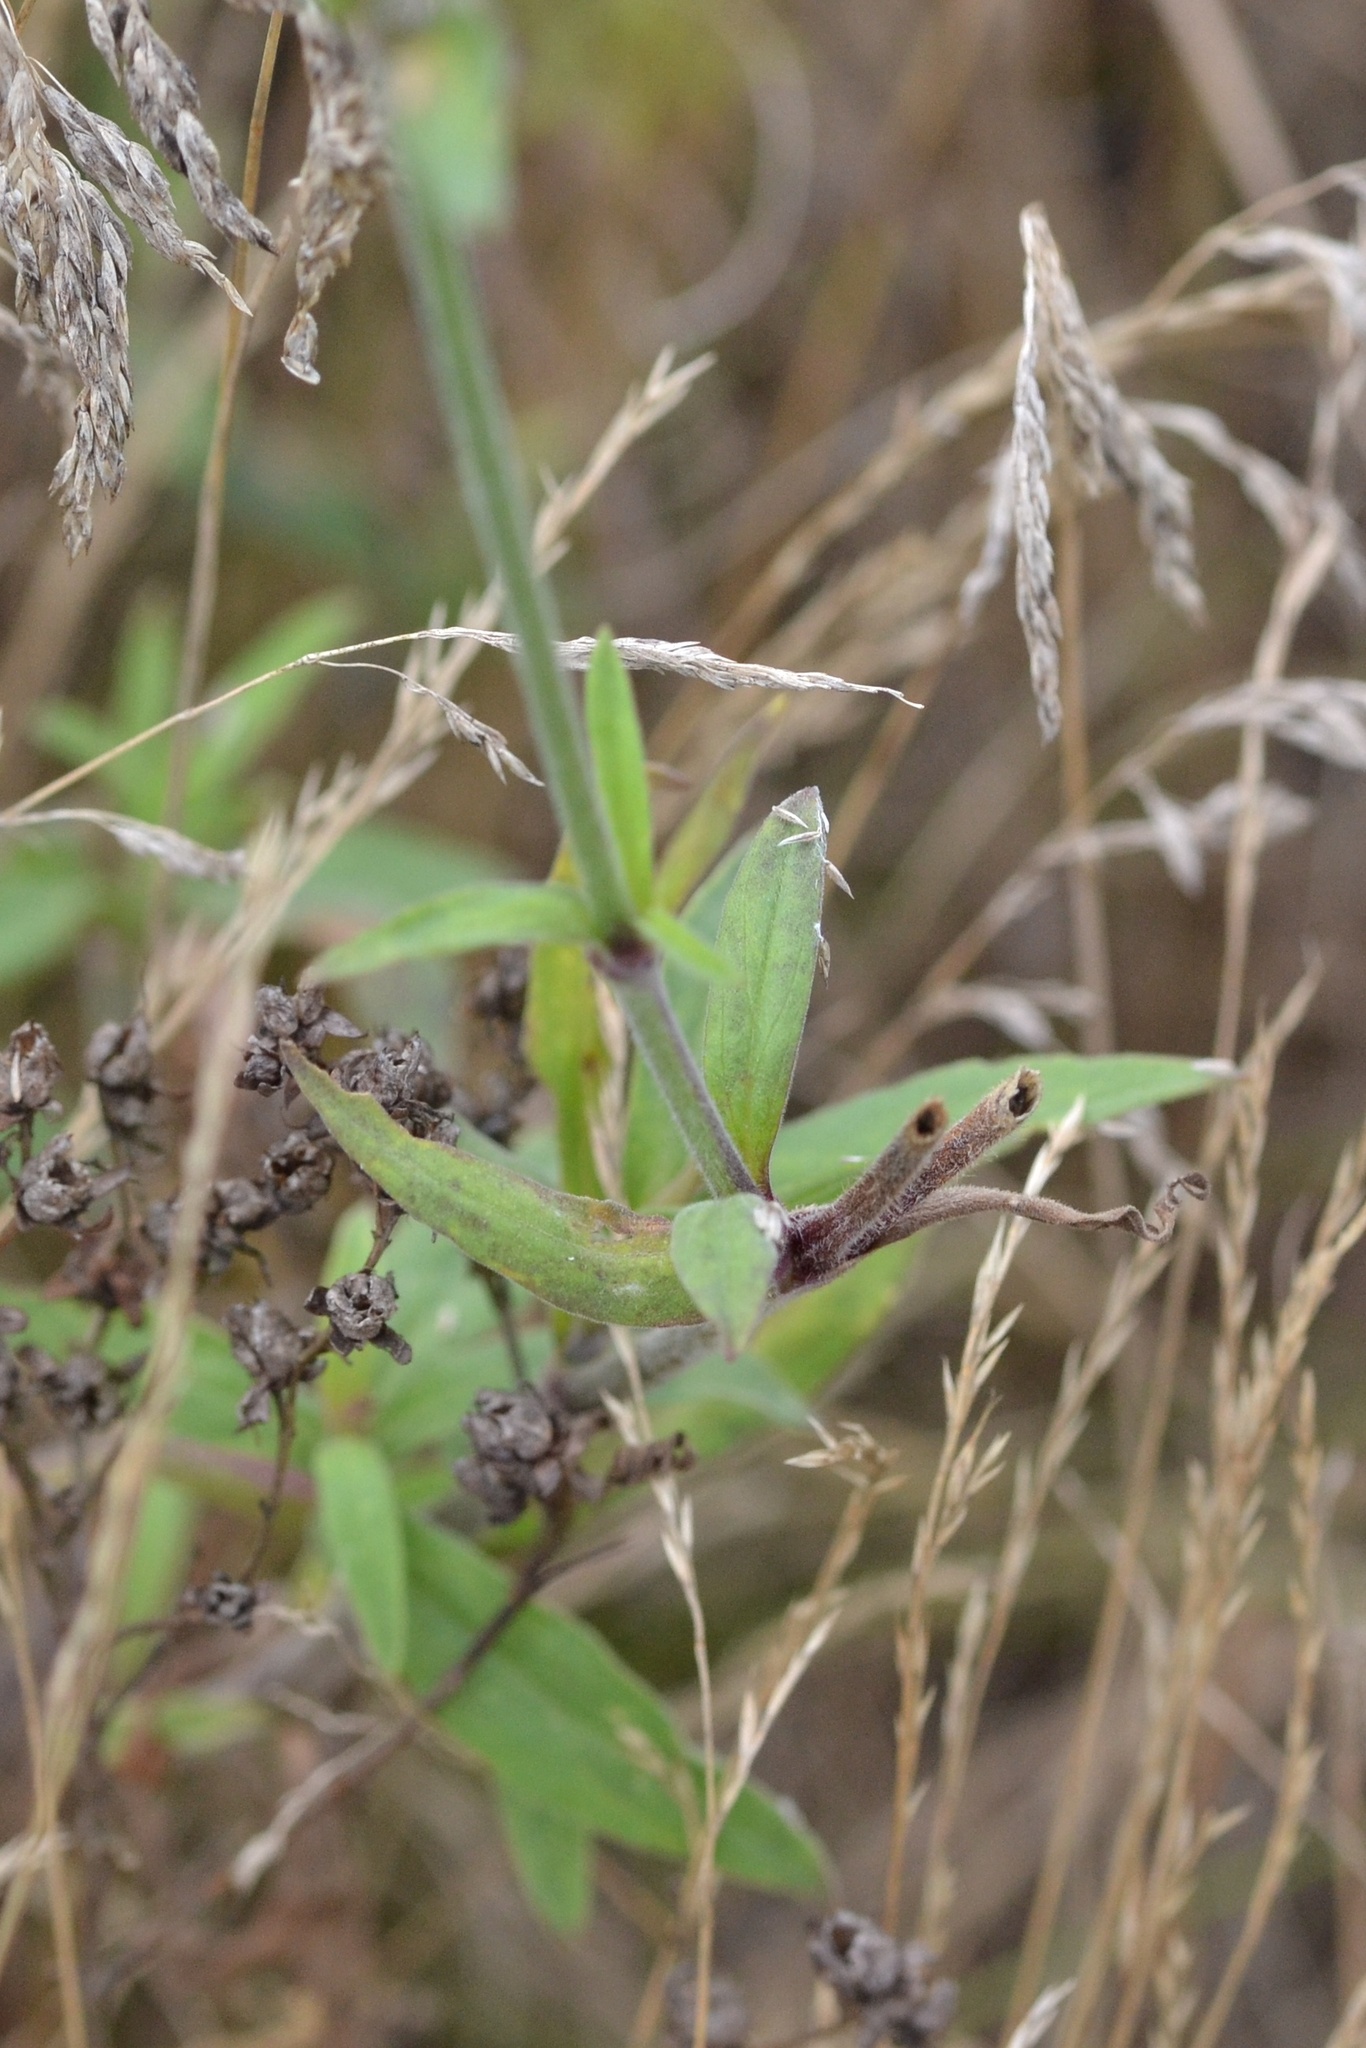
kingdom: Plantae
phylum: Tracheophyta
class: Magnoliopsida
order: Caryophyllales
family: Caryophyllaceae
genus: Silene
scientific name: Silene latifolia
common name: White campion
